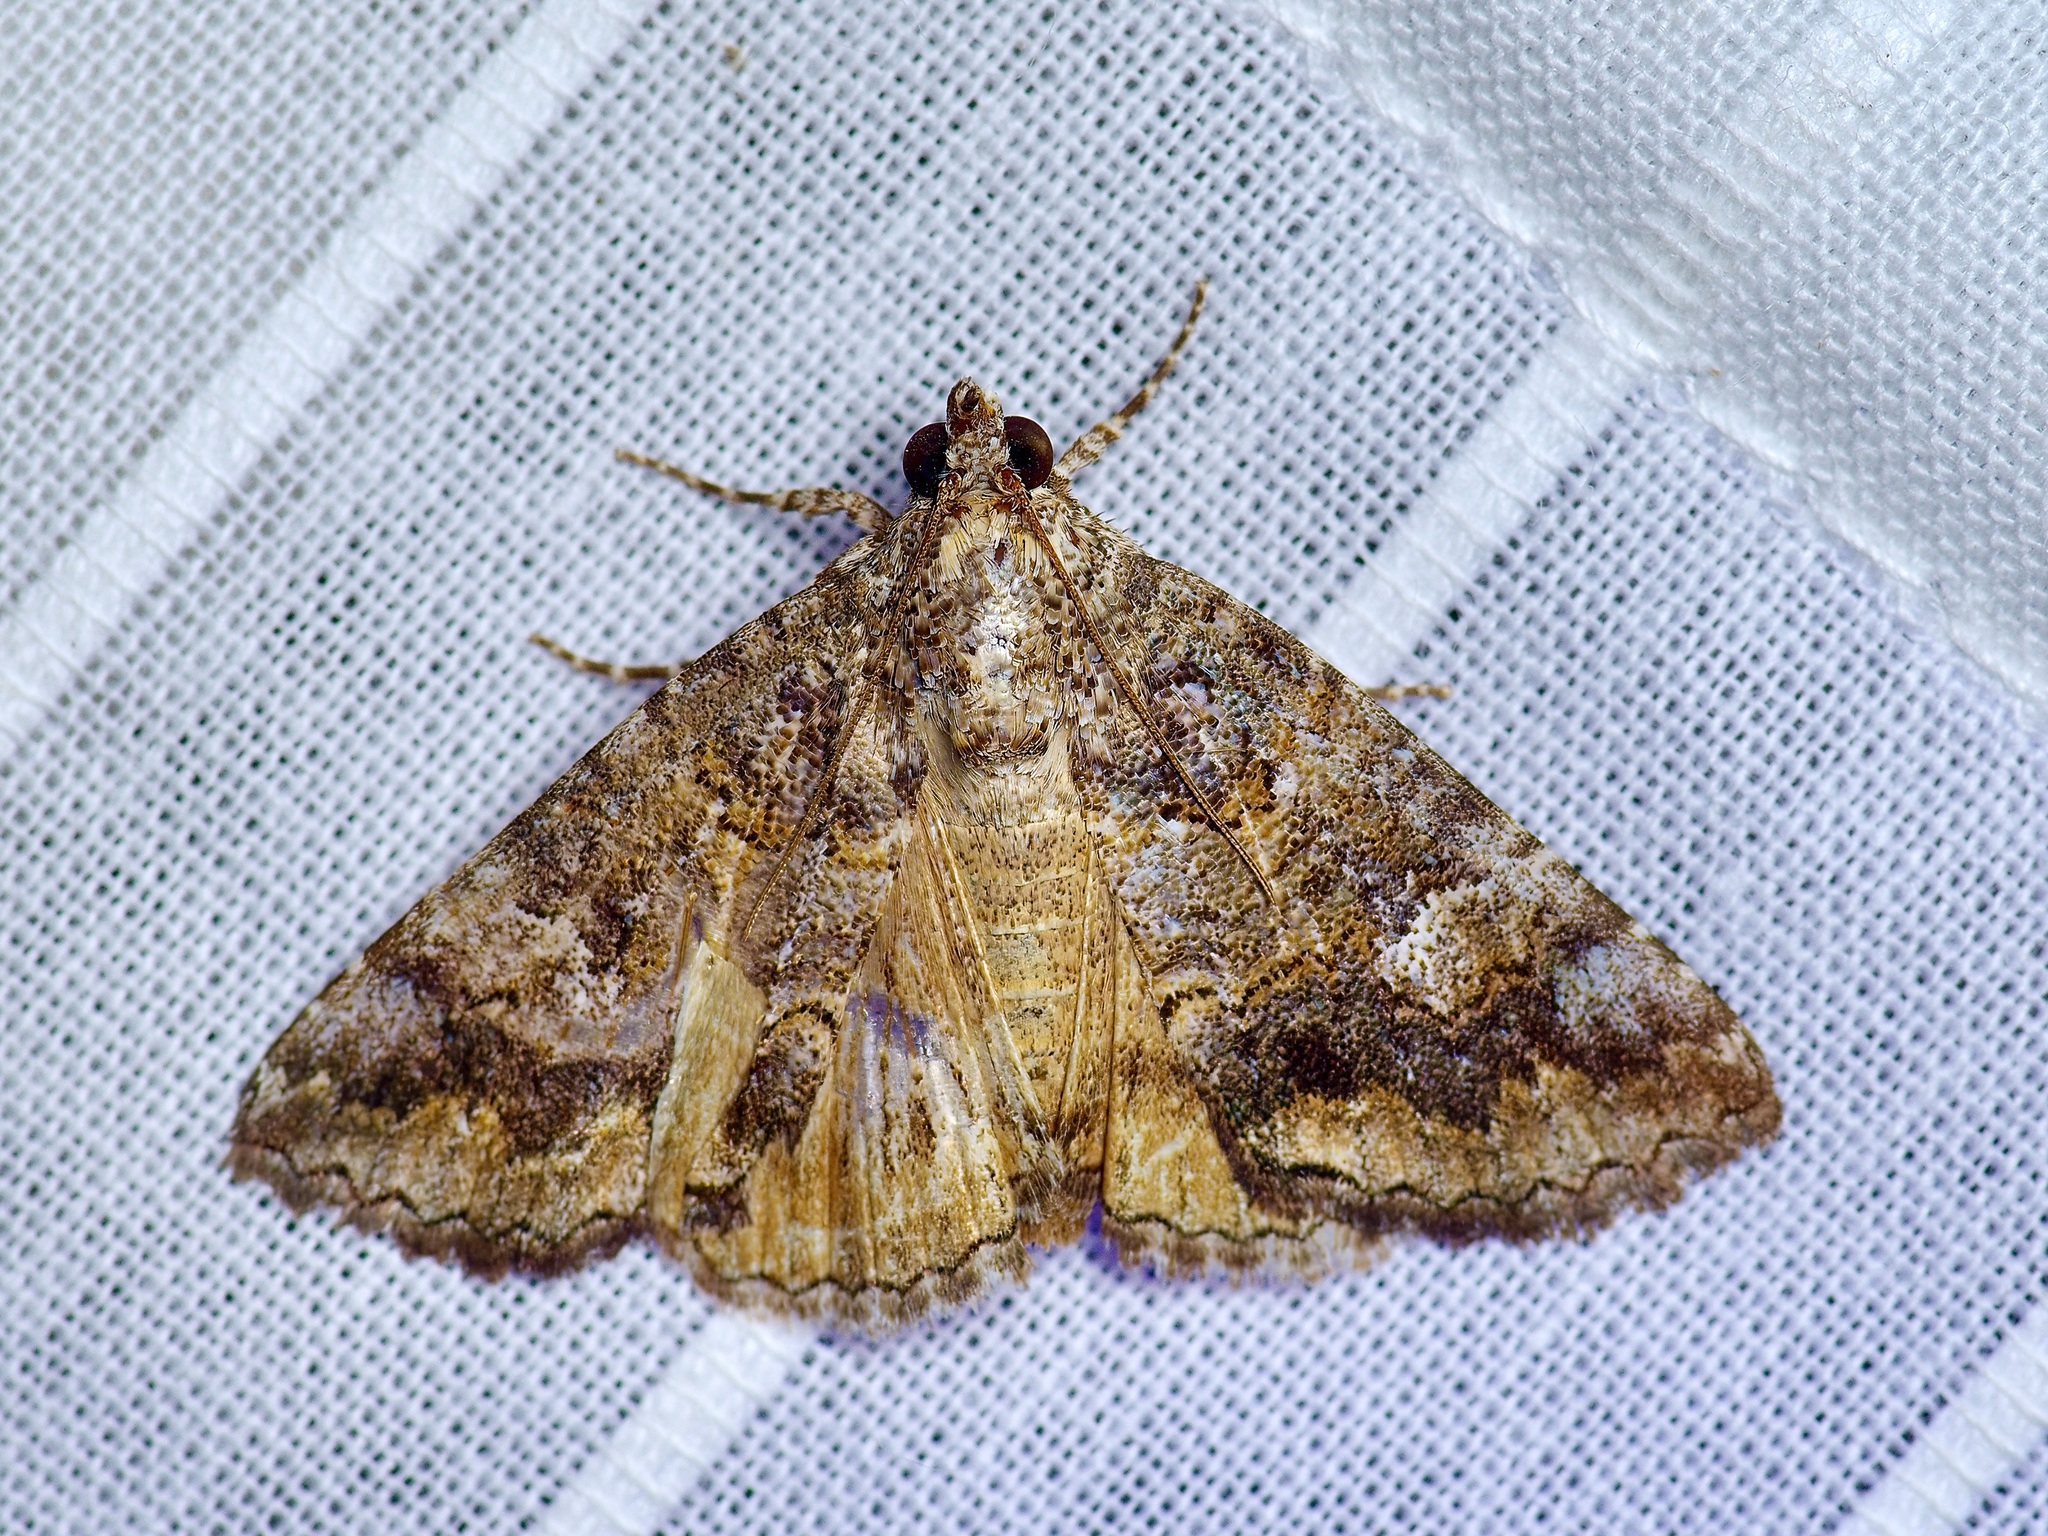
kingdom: Animalia
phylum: Arthropoda
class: Insecta
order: Lepidoptera
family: Erebidae
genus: Eubolina
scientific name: Eubolina impartialis
